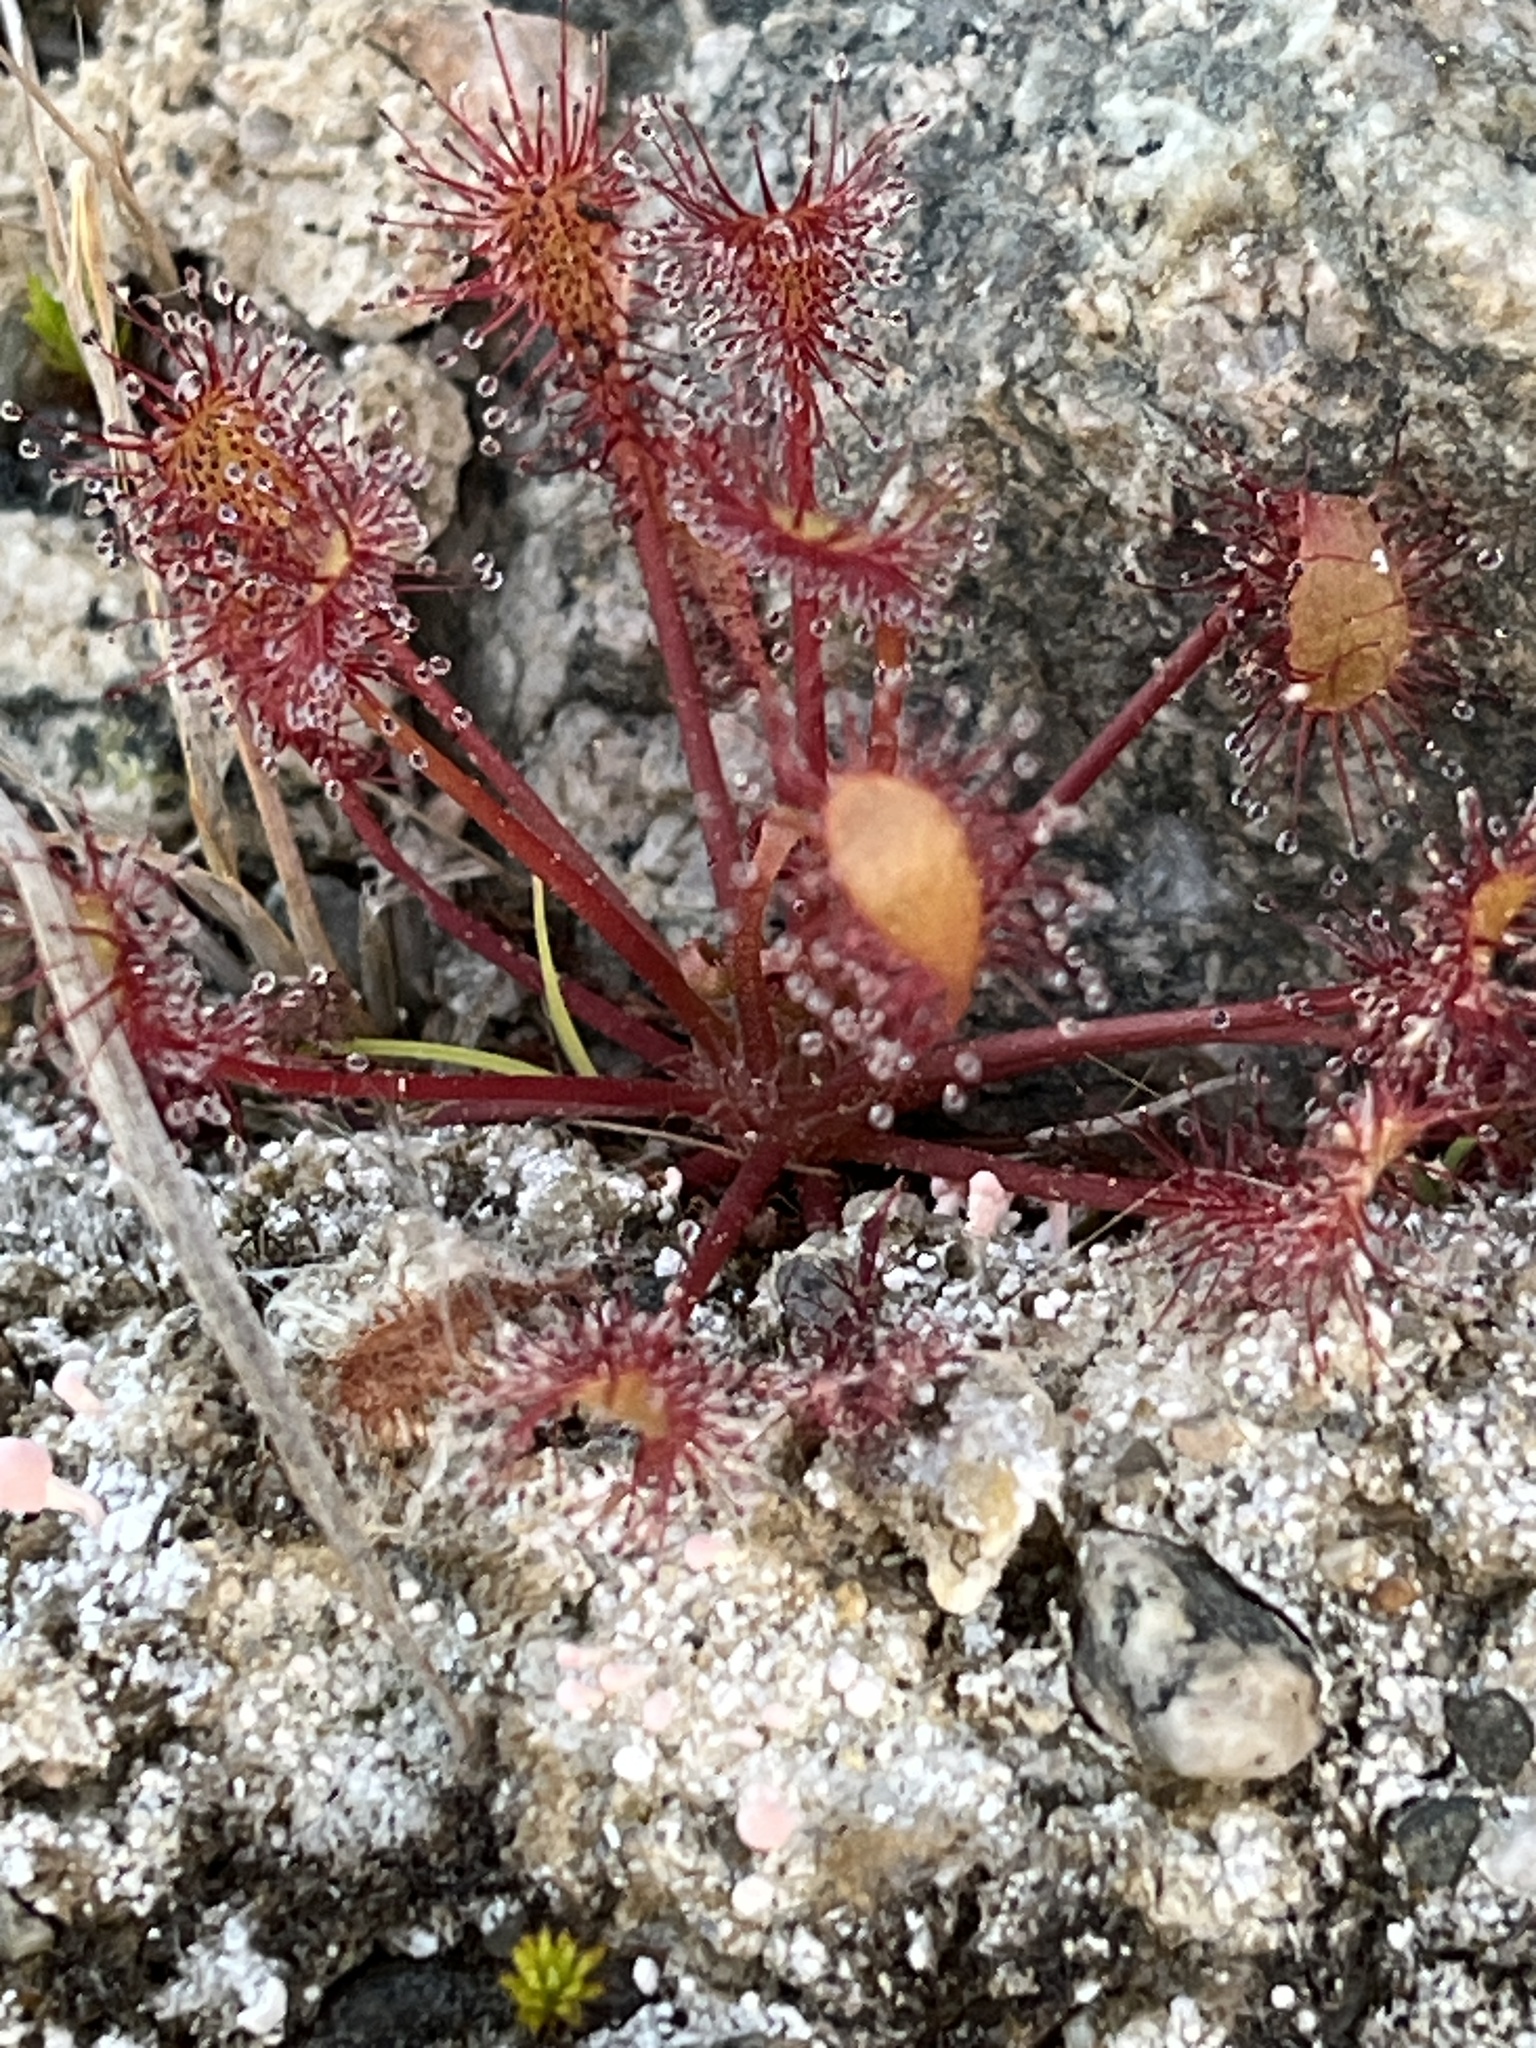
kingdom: Plantae
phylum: Tracheophyta
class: Magnoliopsida
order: Caryophyllales
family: Droseraceae
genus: Drosera
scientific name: Drosera intermedia
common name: Oblong-leaved sundew
